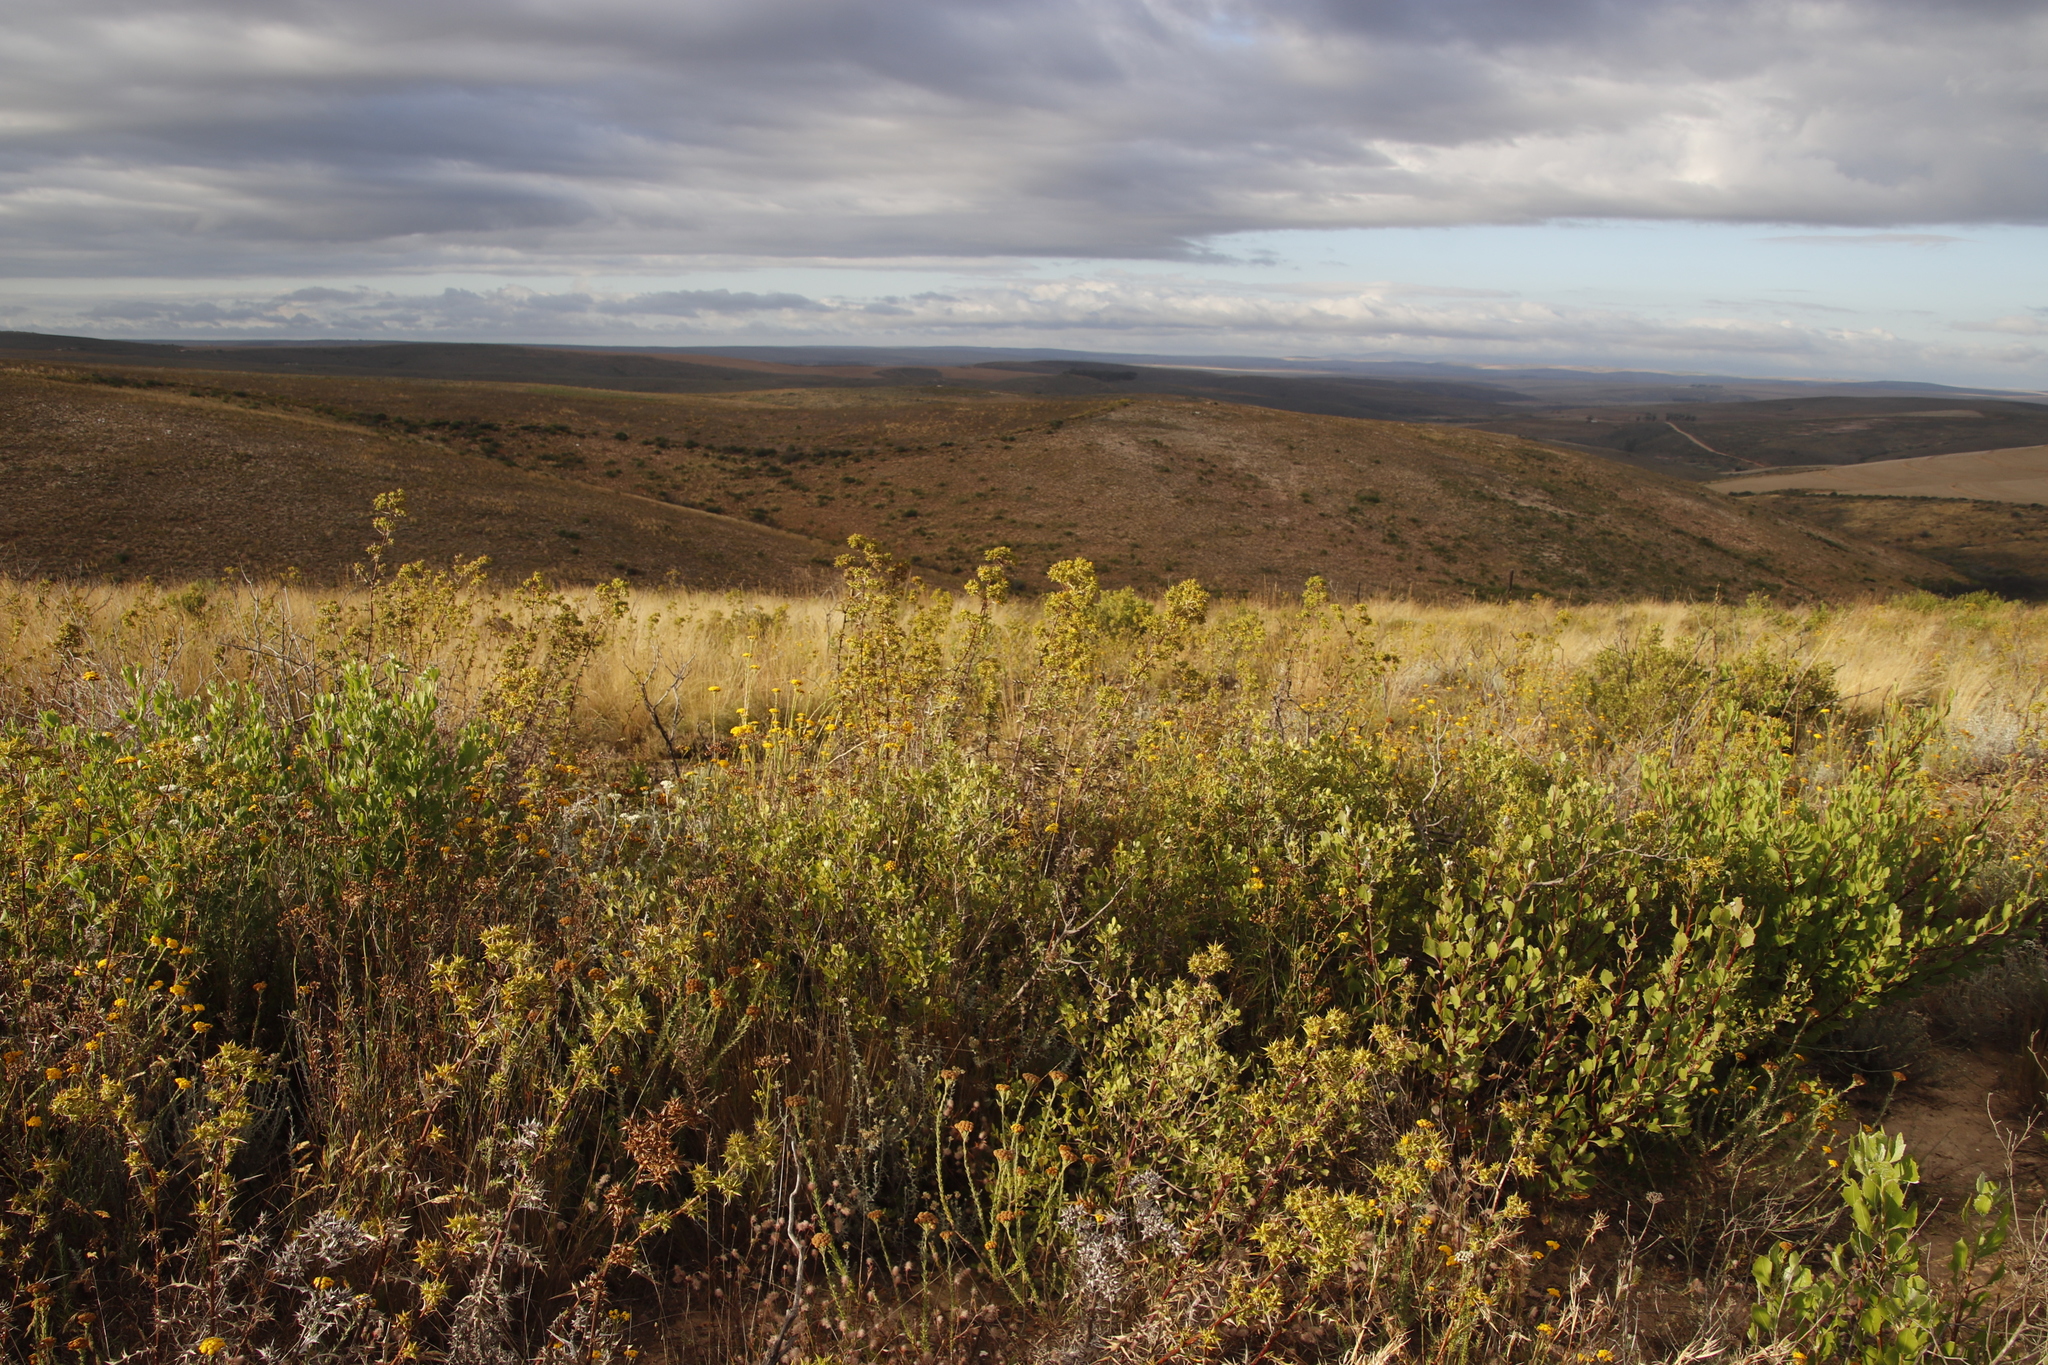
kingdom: Plantae
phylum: Tracheophyta
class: Magnoliopsida
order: Asterales
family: Asteraceae
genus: Berkheya
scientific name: Berkheya rigida
